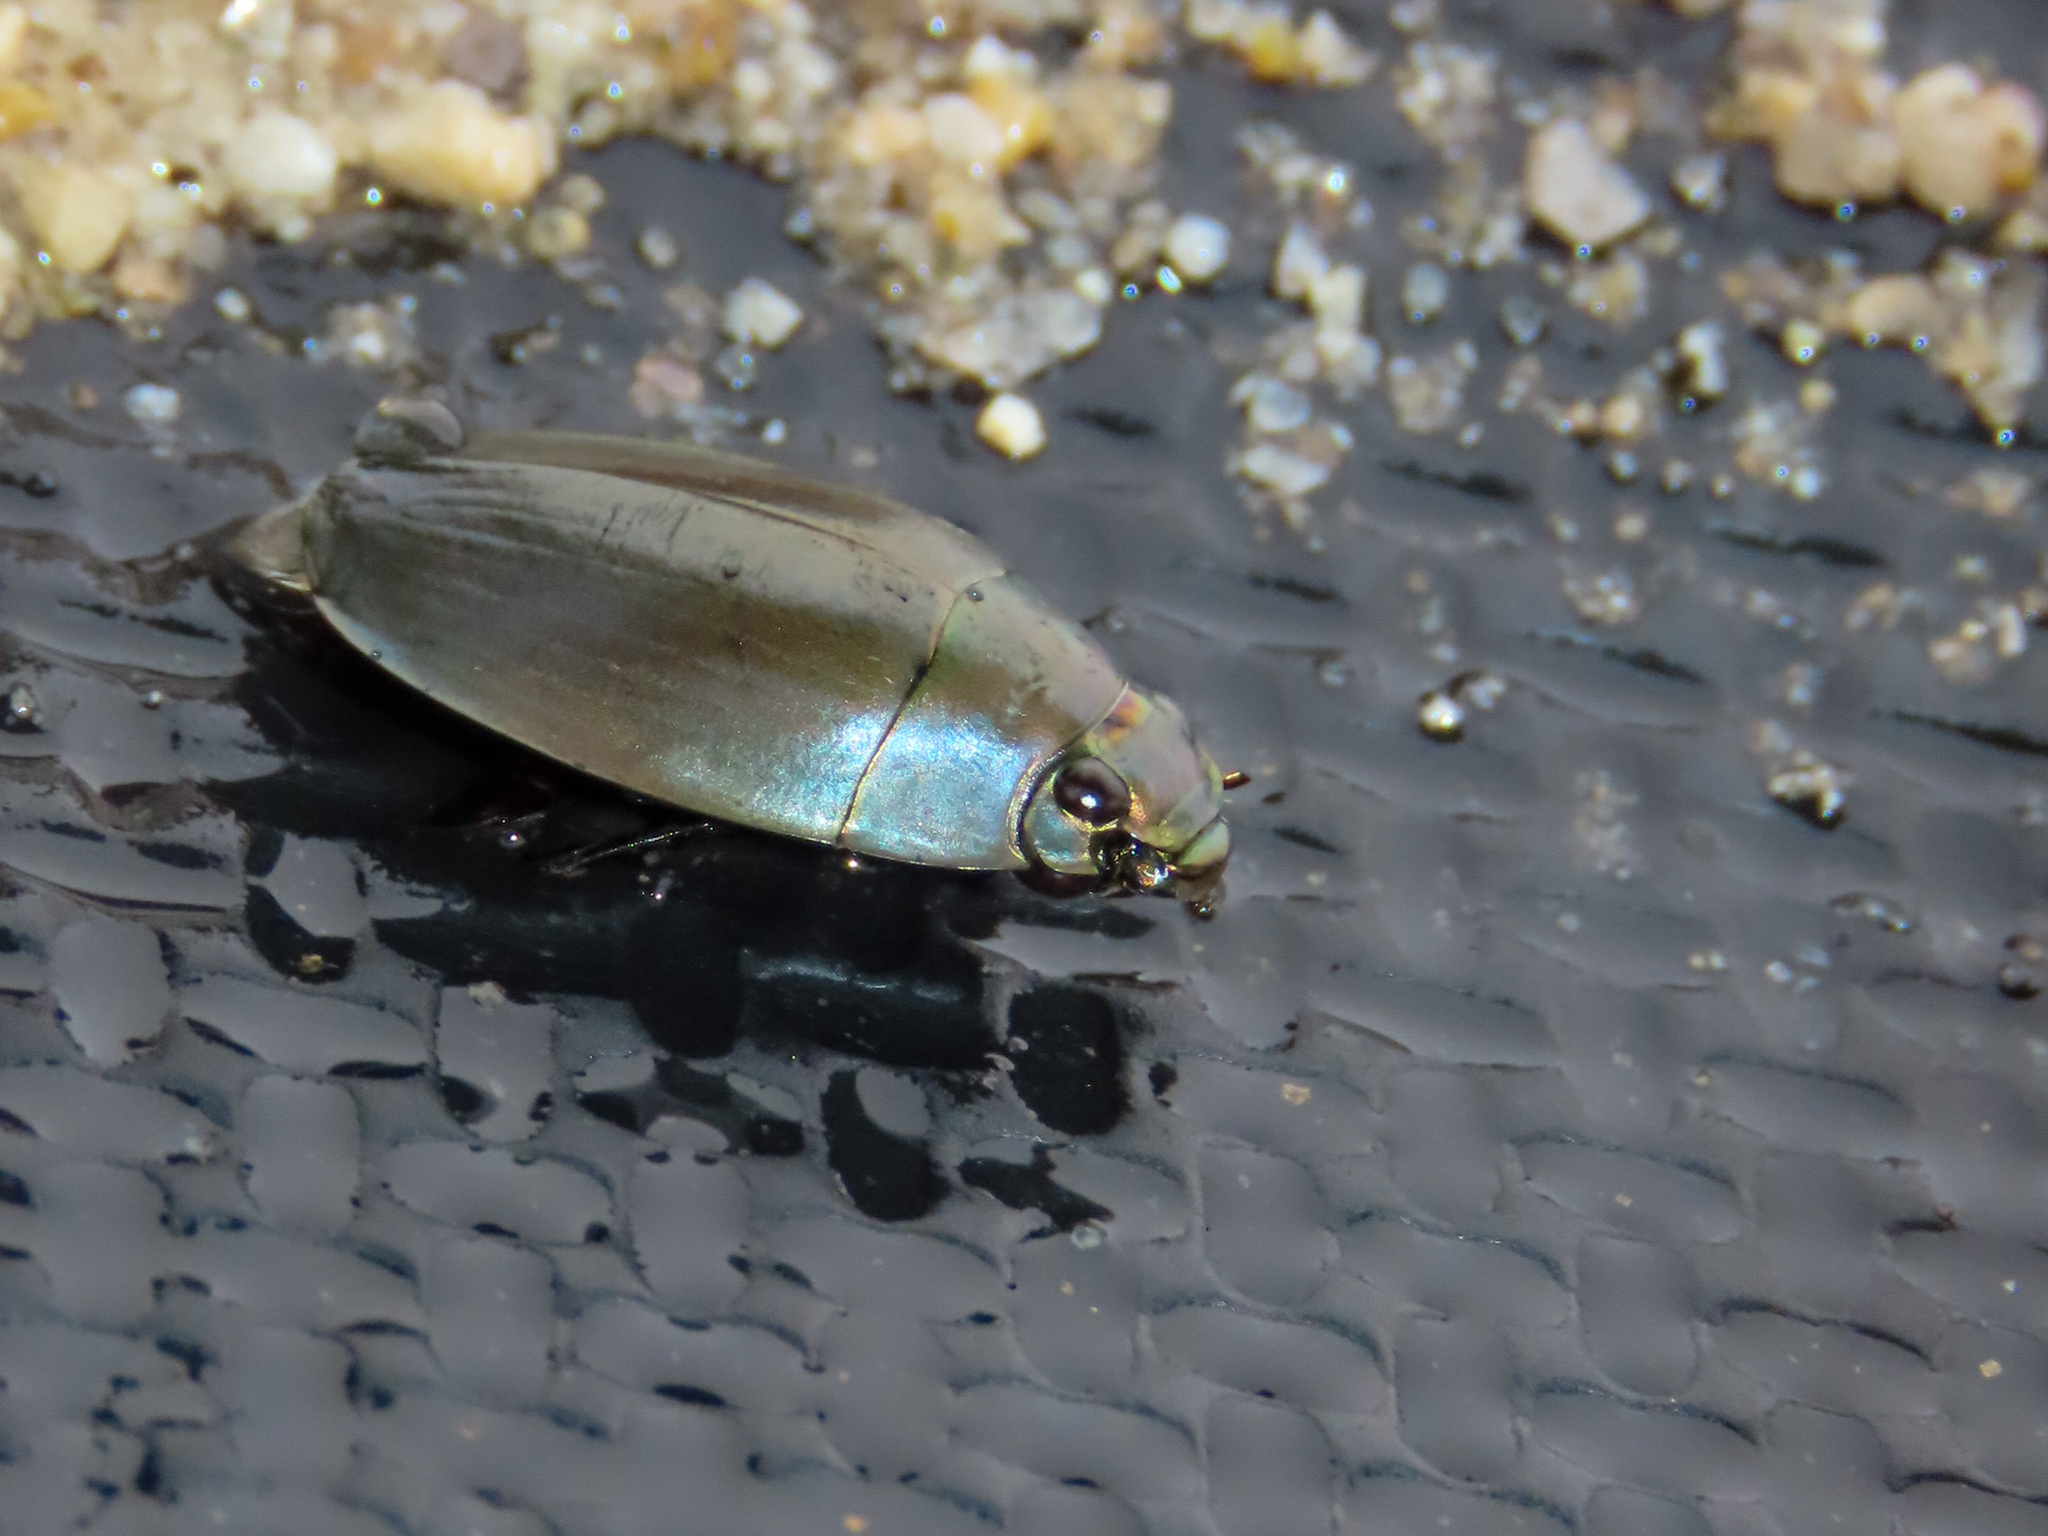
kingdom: Animalia
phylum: Arthropoda
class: Insecta
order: Coleoptera
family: Gyrinidae
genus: Dineutus
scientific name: Dineutus sublineatus
